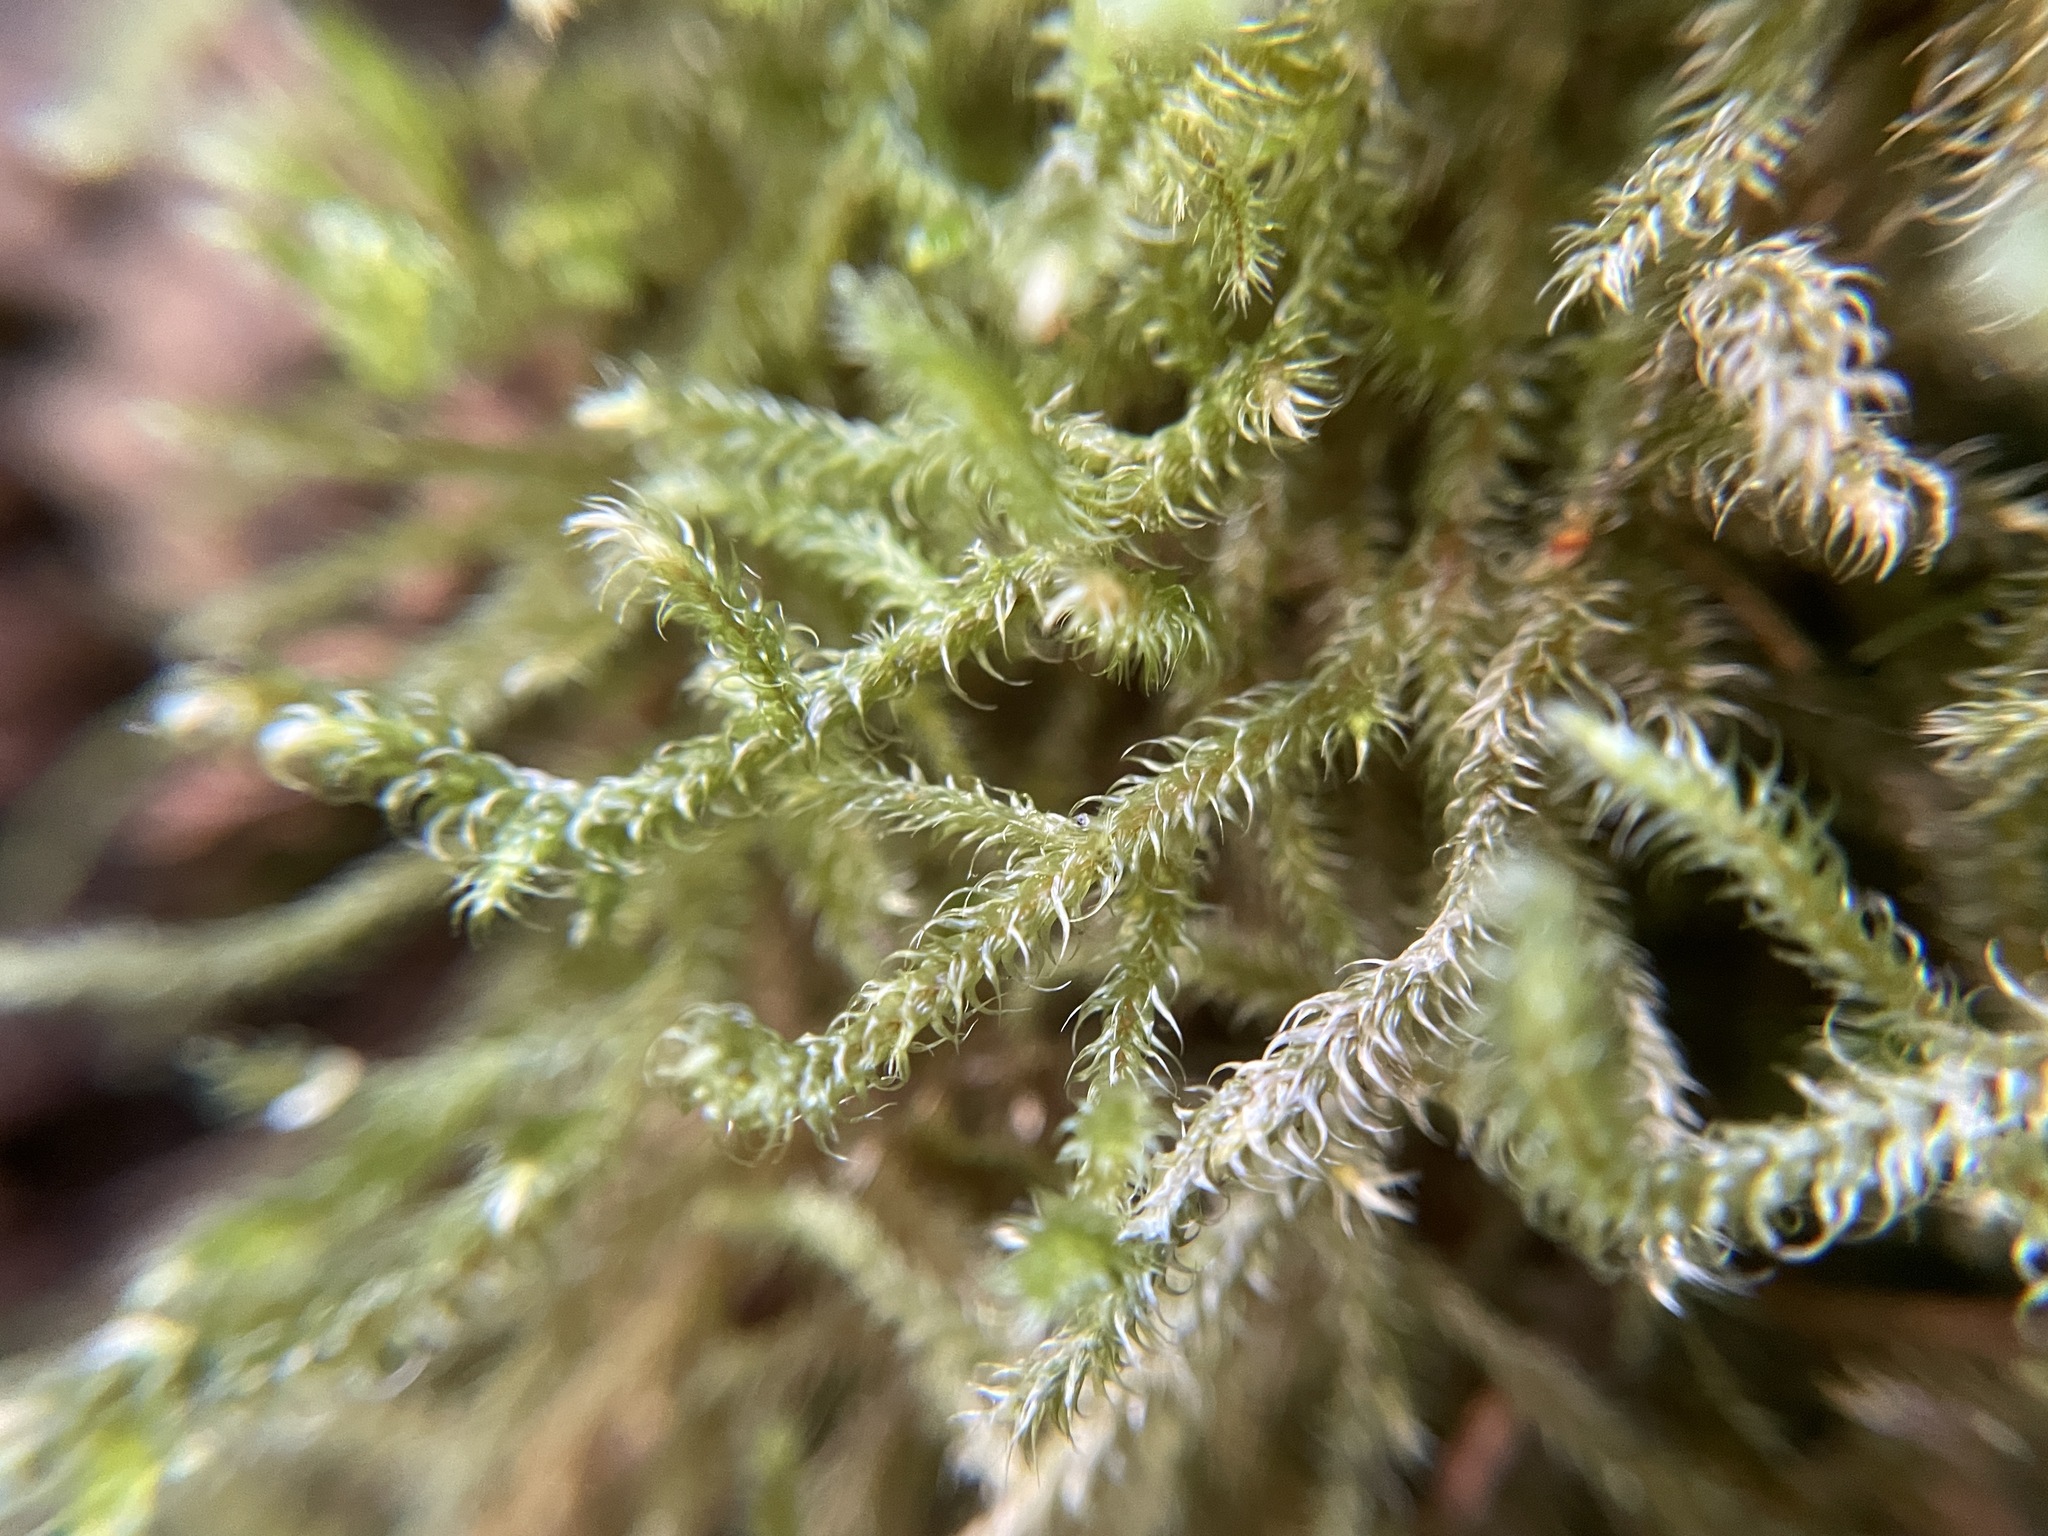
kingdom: Plantae
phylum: Bryophyta
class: Bryopsida
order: Hypnales
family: Hylocomiaceae
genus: Rhytidiadelphus
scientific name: Rhytidiadelphus loreus
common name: Lanky moss
